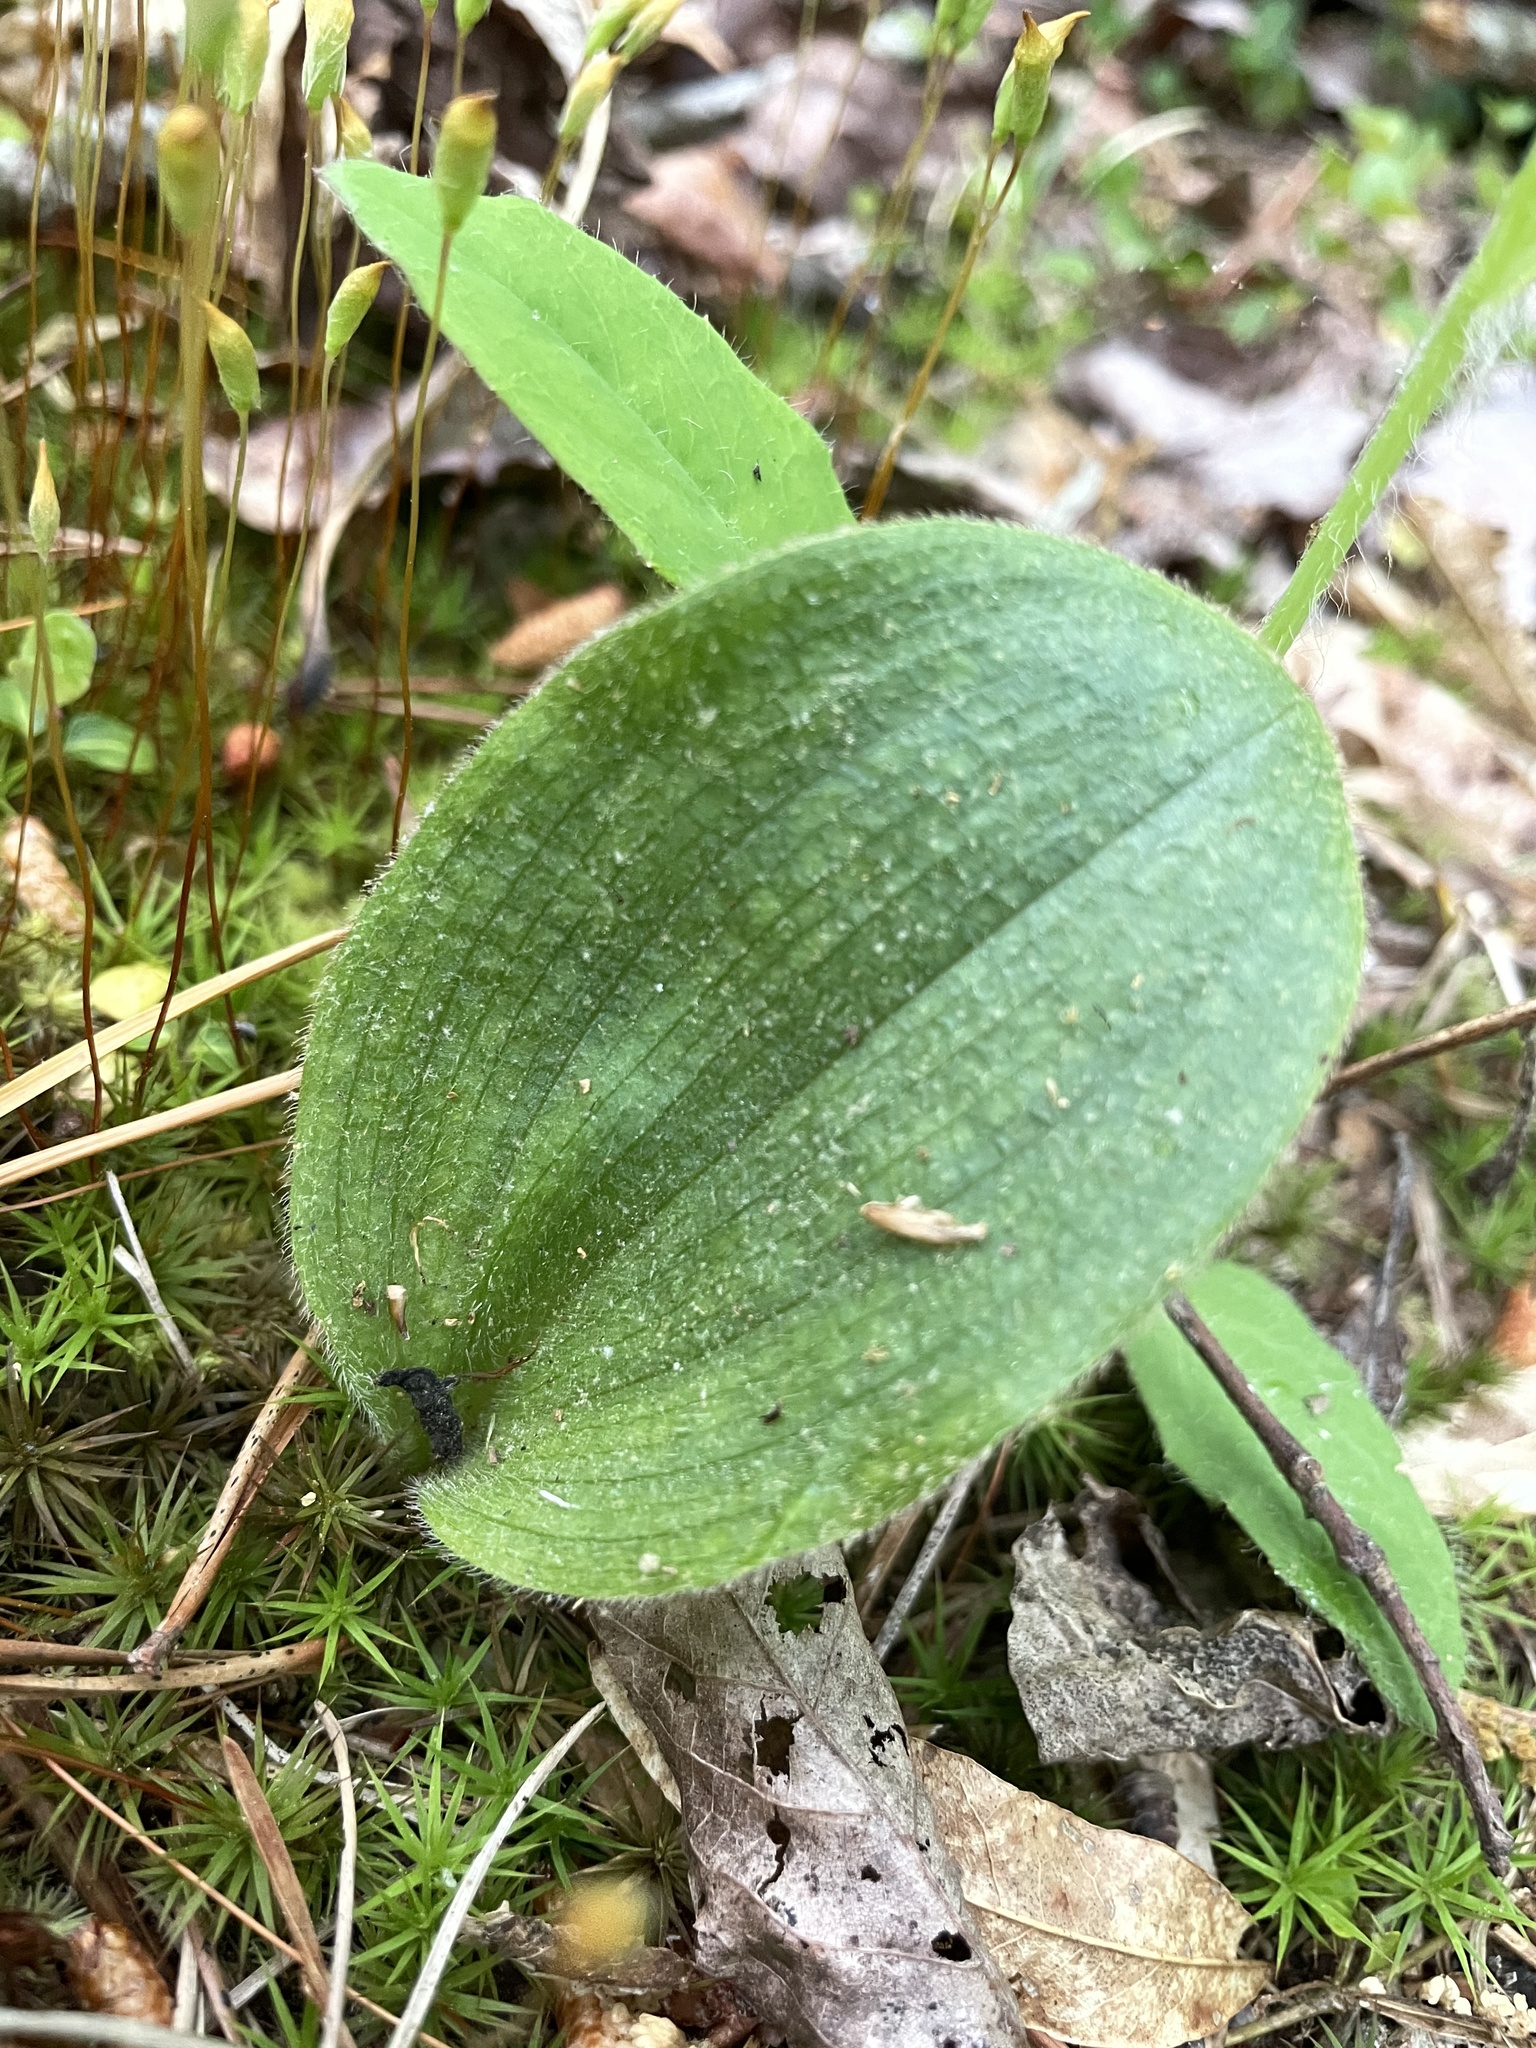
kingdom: Plantae
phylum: Tracheophyta
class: Liliopsida
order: Asparagales
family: Orchidaceae
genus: Cypripedium
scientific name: Cypripedium acaule
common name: Pink lady's-slipper
